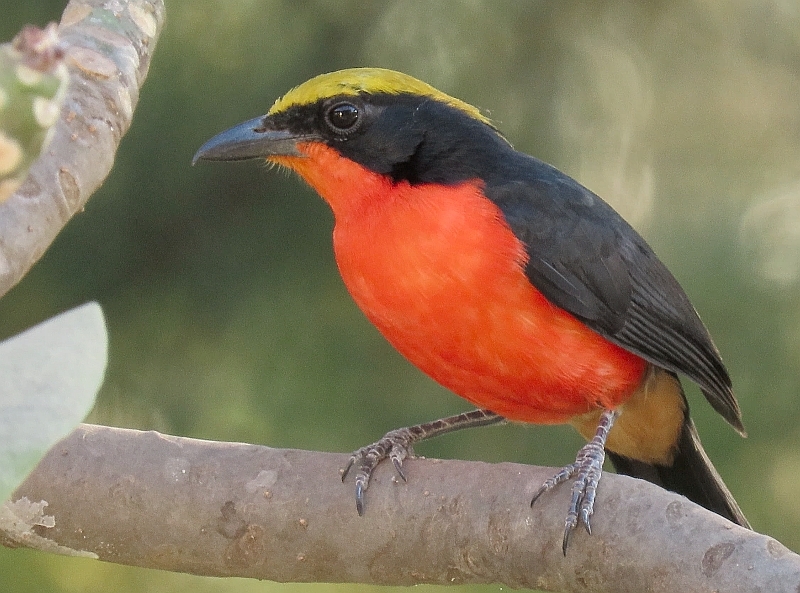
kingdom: Animalia
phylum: Chordata
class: Aves
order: Passeriformes
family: Malaconotidae
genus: Laniarius
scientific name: Laniarius barbarus
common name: Yellow-crowned gonolek
